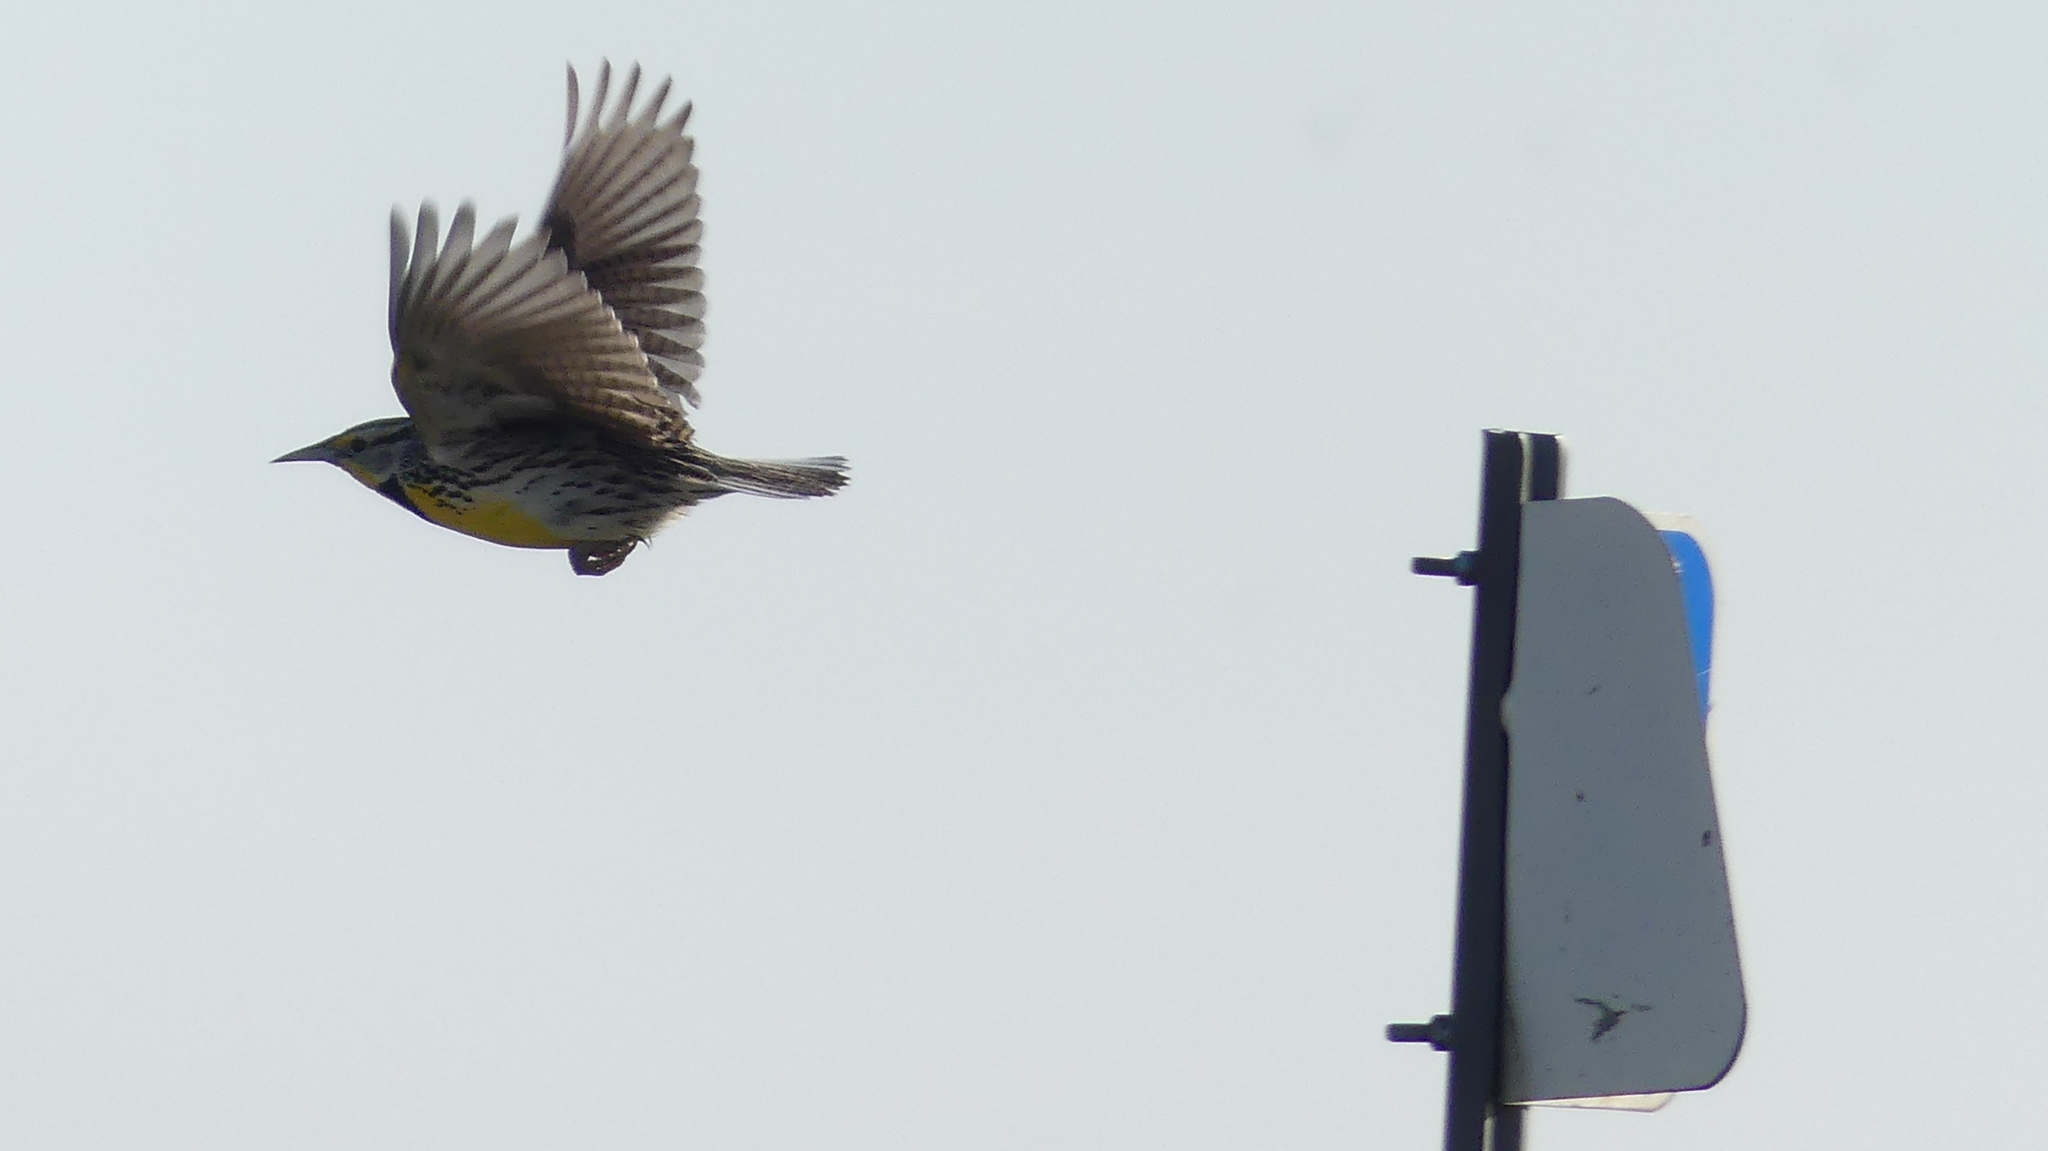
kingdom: Animalia
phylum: Chordata
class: Aves
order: Passeriformes
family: Icteridae
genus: Sturnella
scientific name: Sturnella neglecta
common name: Western meadowlark
